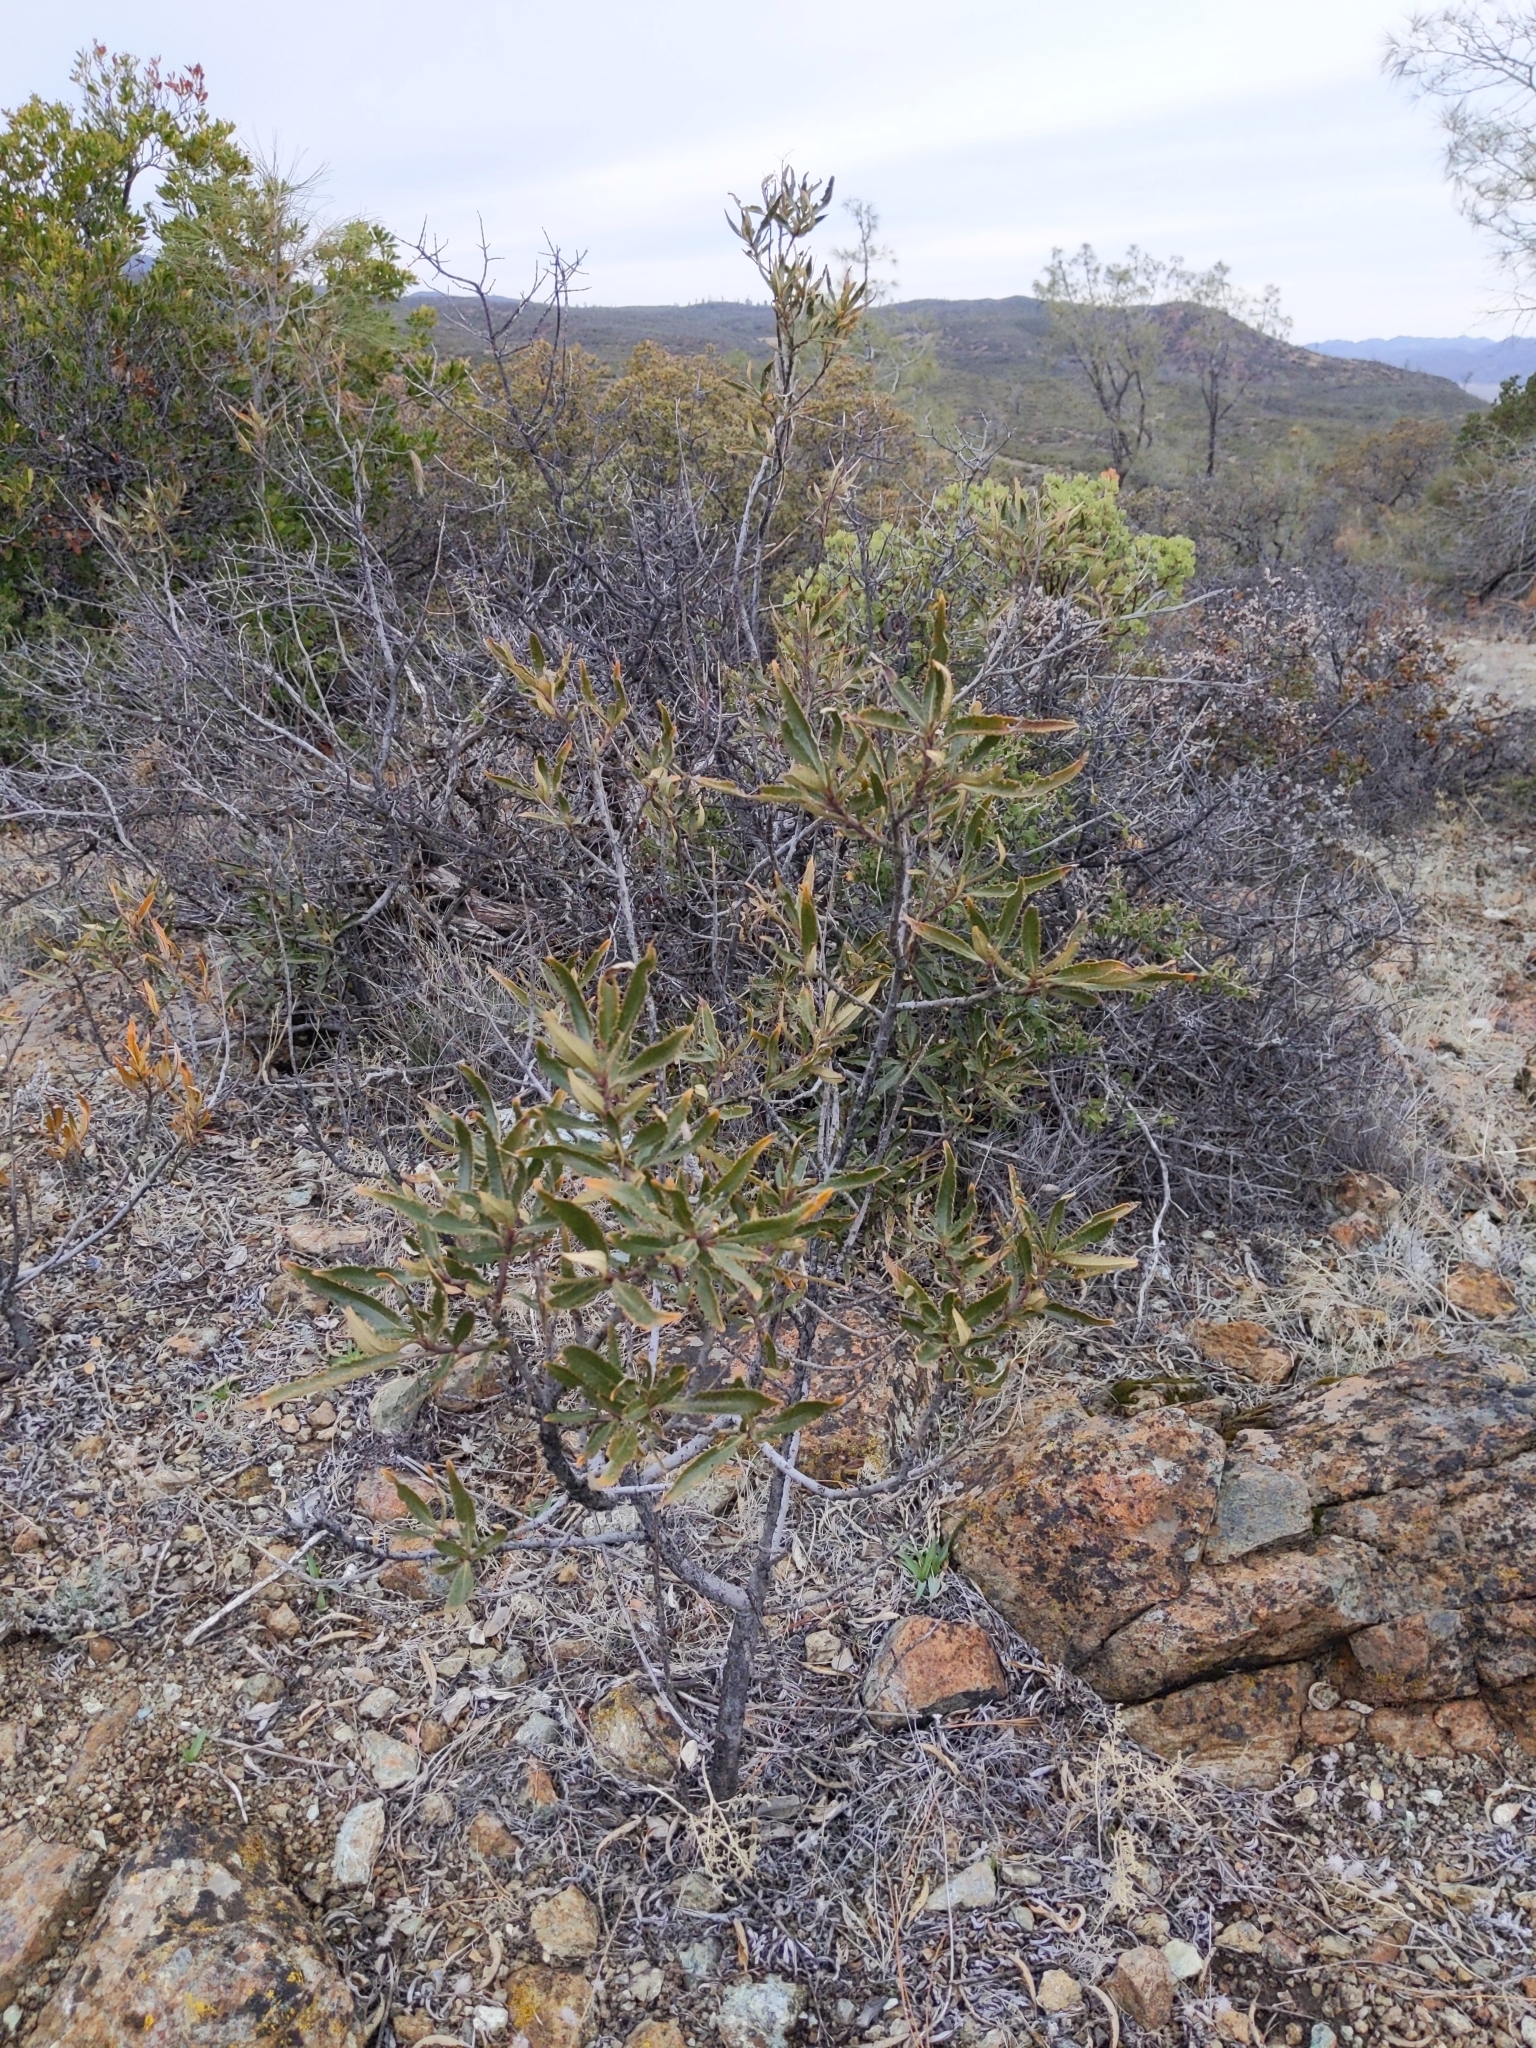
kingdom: Plantae
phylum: Tracheophyta
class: Magnoliopsida
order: Boraginales
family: Namaceae
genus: Eriodictyon
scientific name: Eriodictyon californicum
